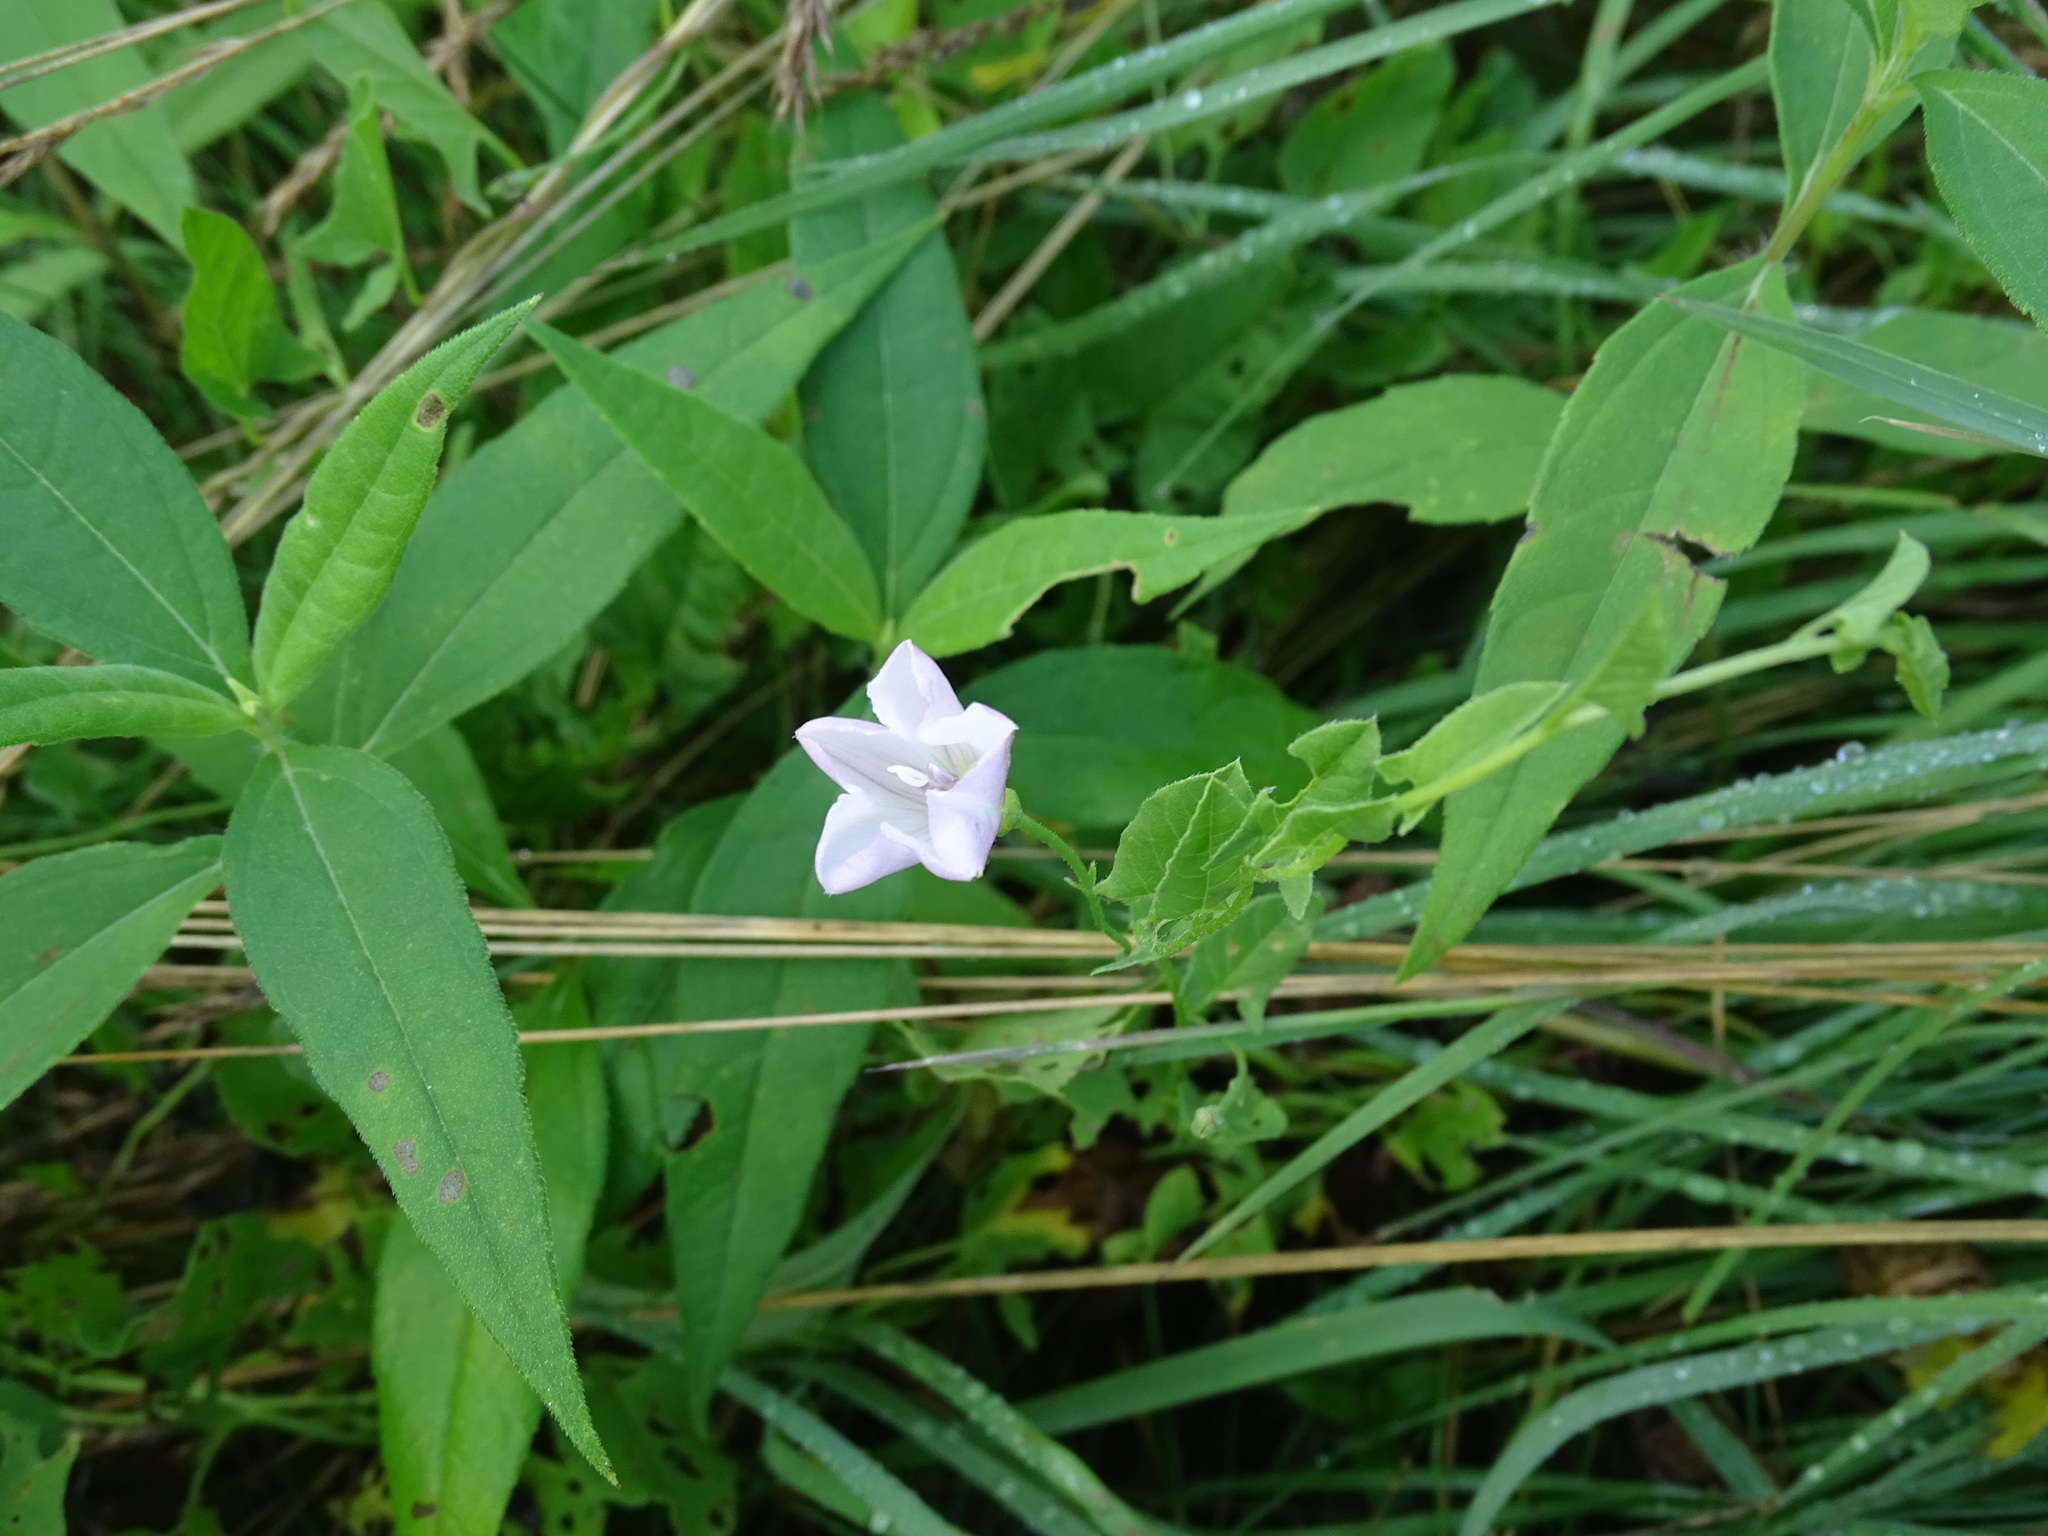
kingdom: Plantae
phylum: Tracheophyta
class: Magnoliopsida
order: Solanales
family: Convolvulaceae
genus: Convolvulus
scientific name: Convolvulus arvensis
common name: Field bindweed
